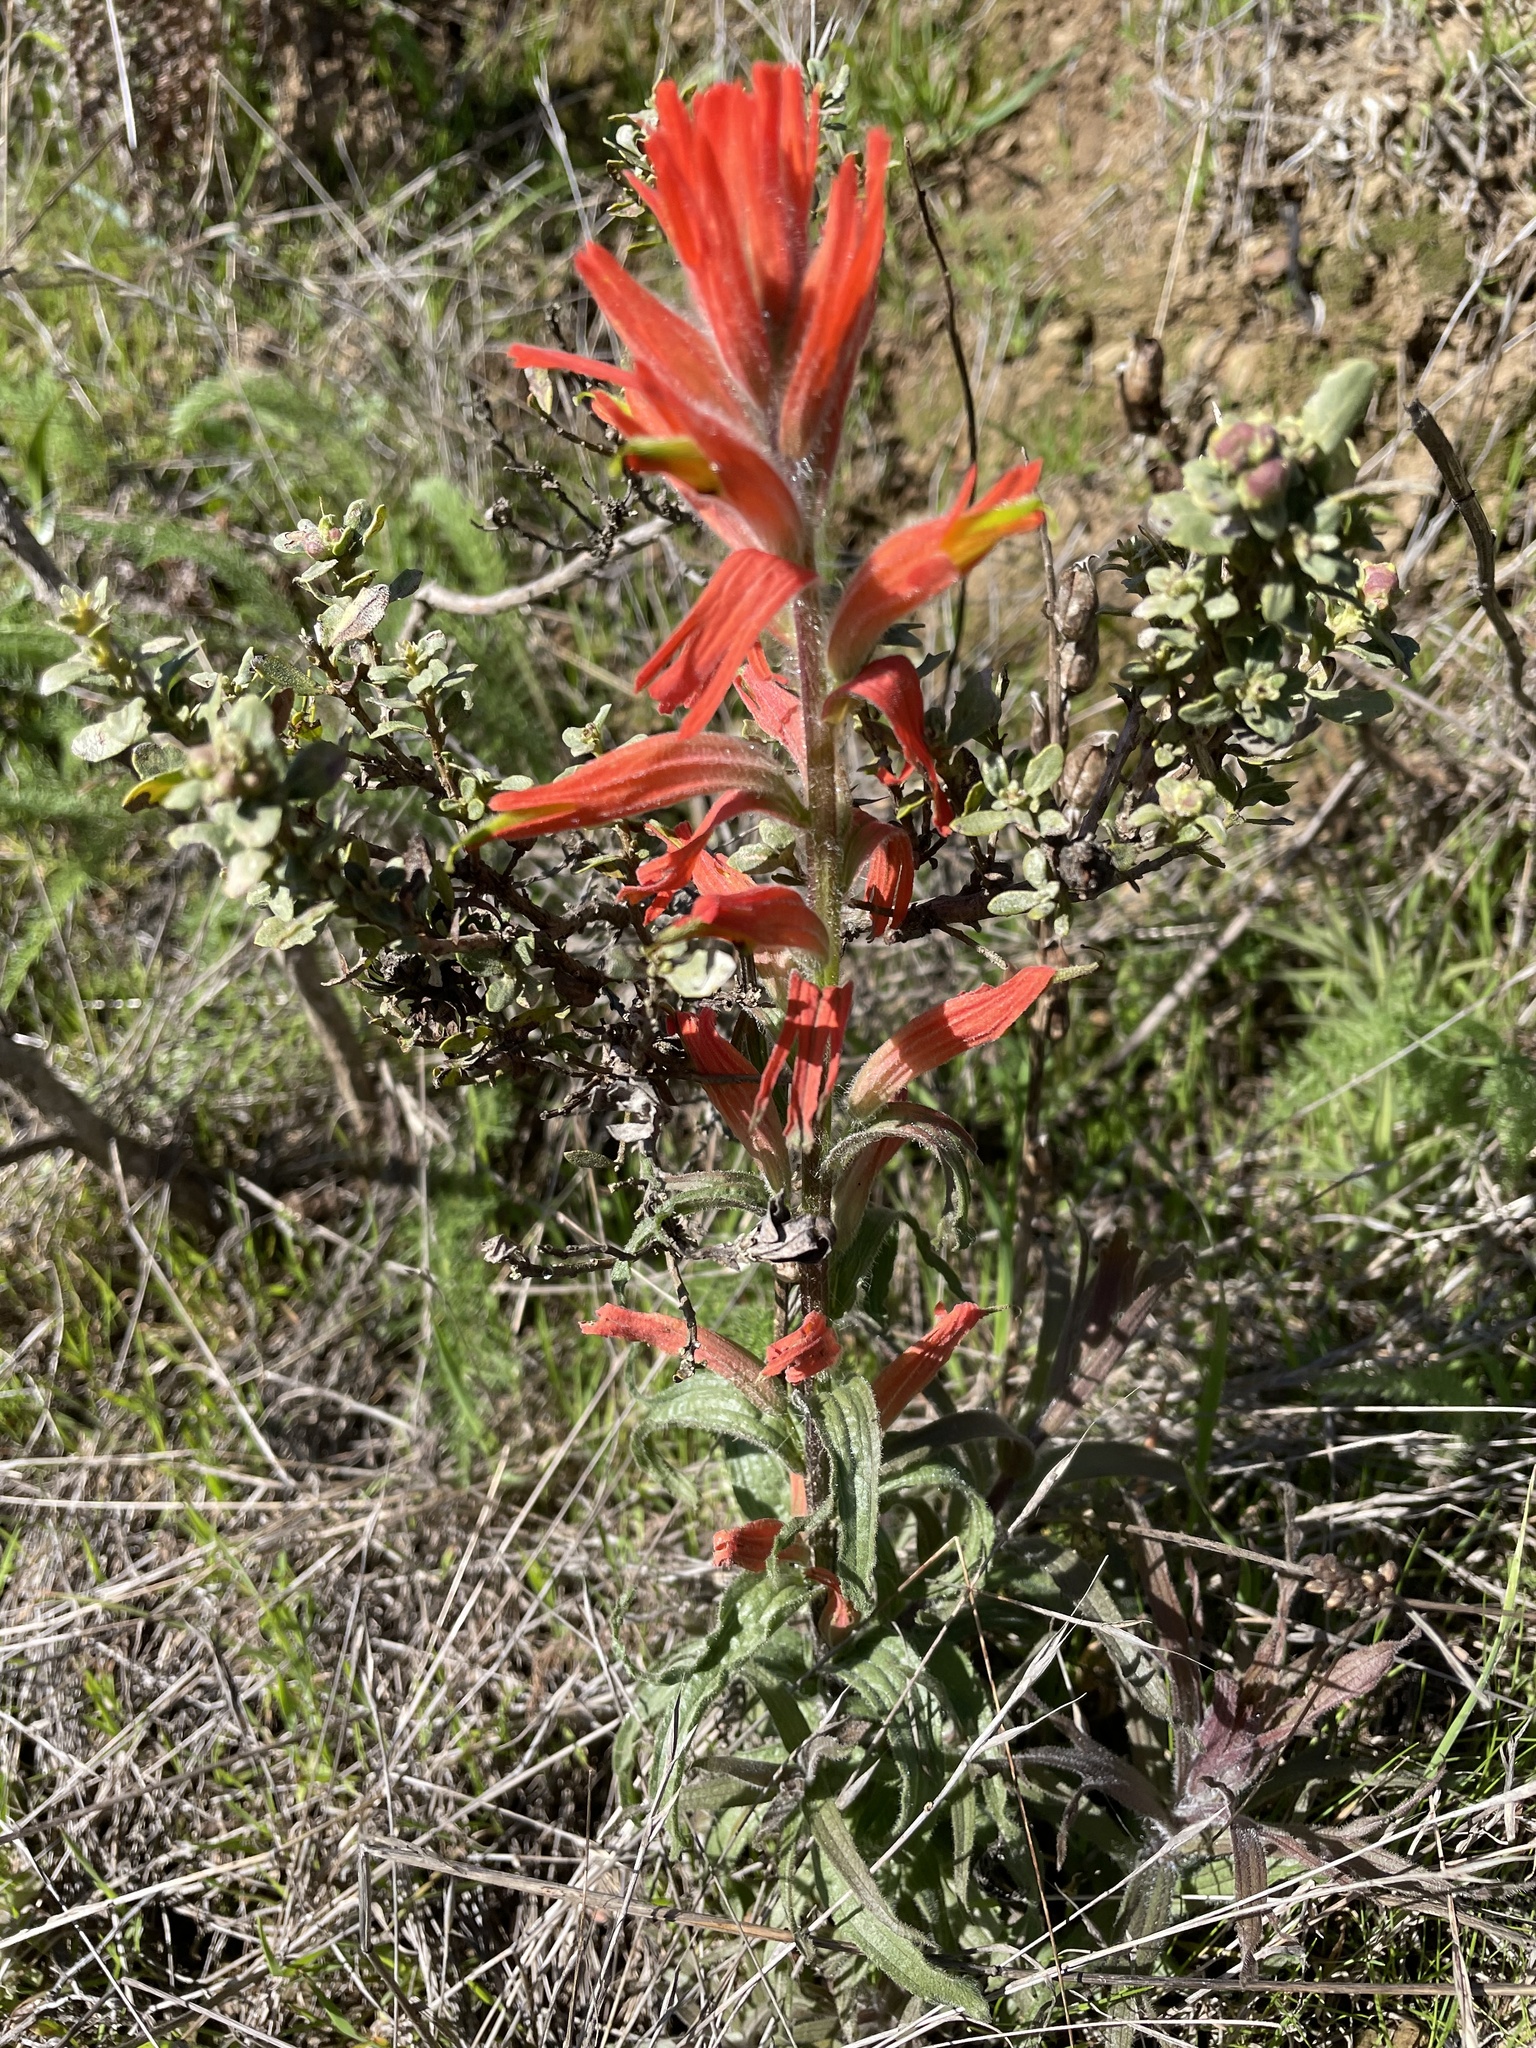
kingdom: Plantae
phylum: Tracheophyta
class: Magnoliopsida
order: Lamiales
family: Orobanchaceae
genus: Castilleja
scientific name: Castilleja subinclusa
